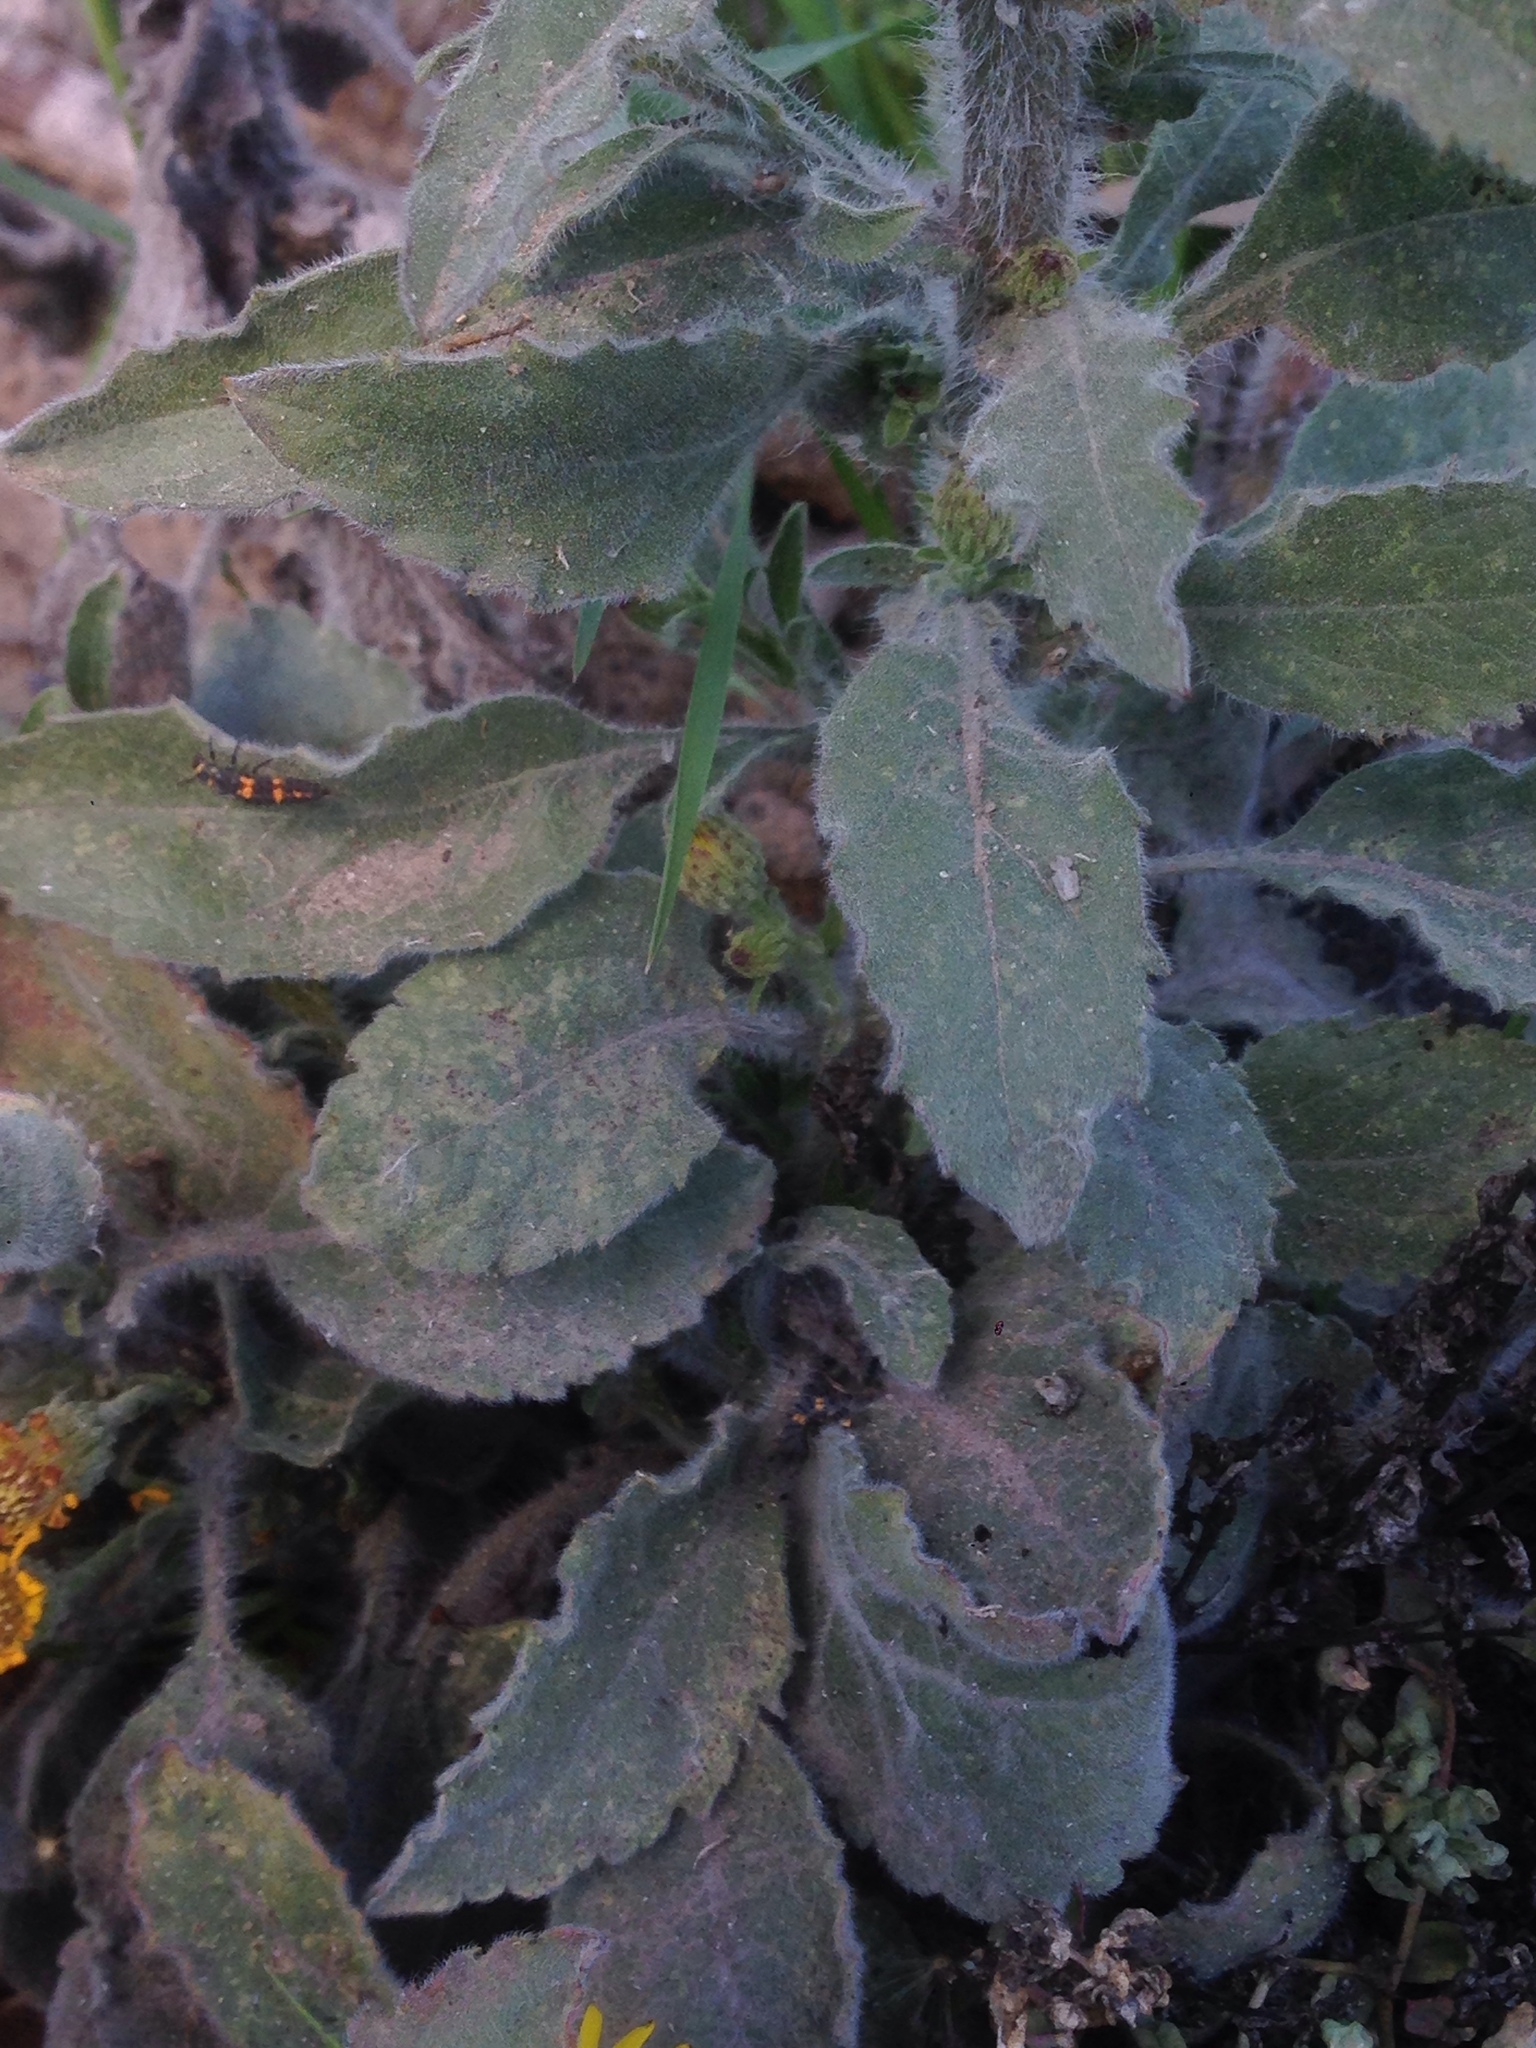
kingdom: Plantae
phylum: Tracheophyta
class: Magnoliopsida
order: Asterales
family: Asteraceae
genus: Heterotheca
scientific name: Heterotheca grandiflora
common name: Telegraphweed
